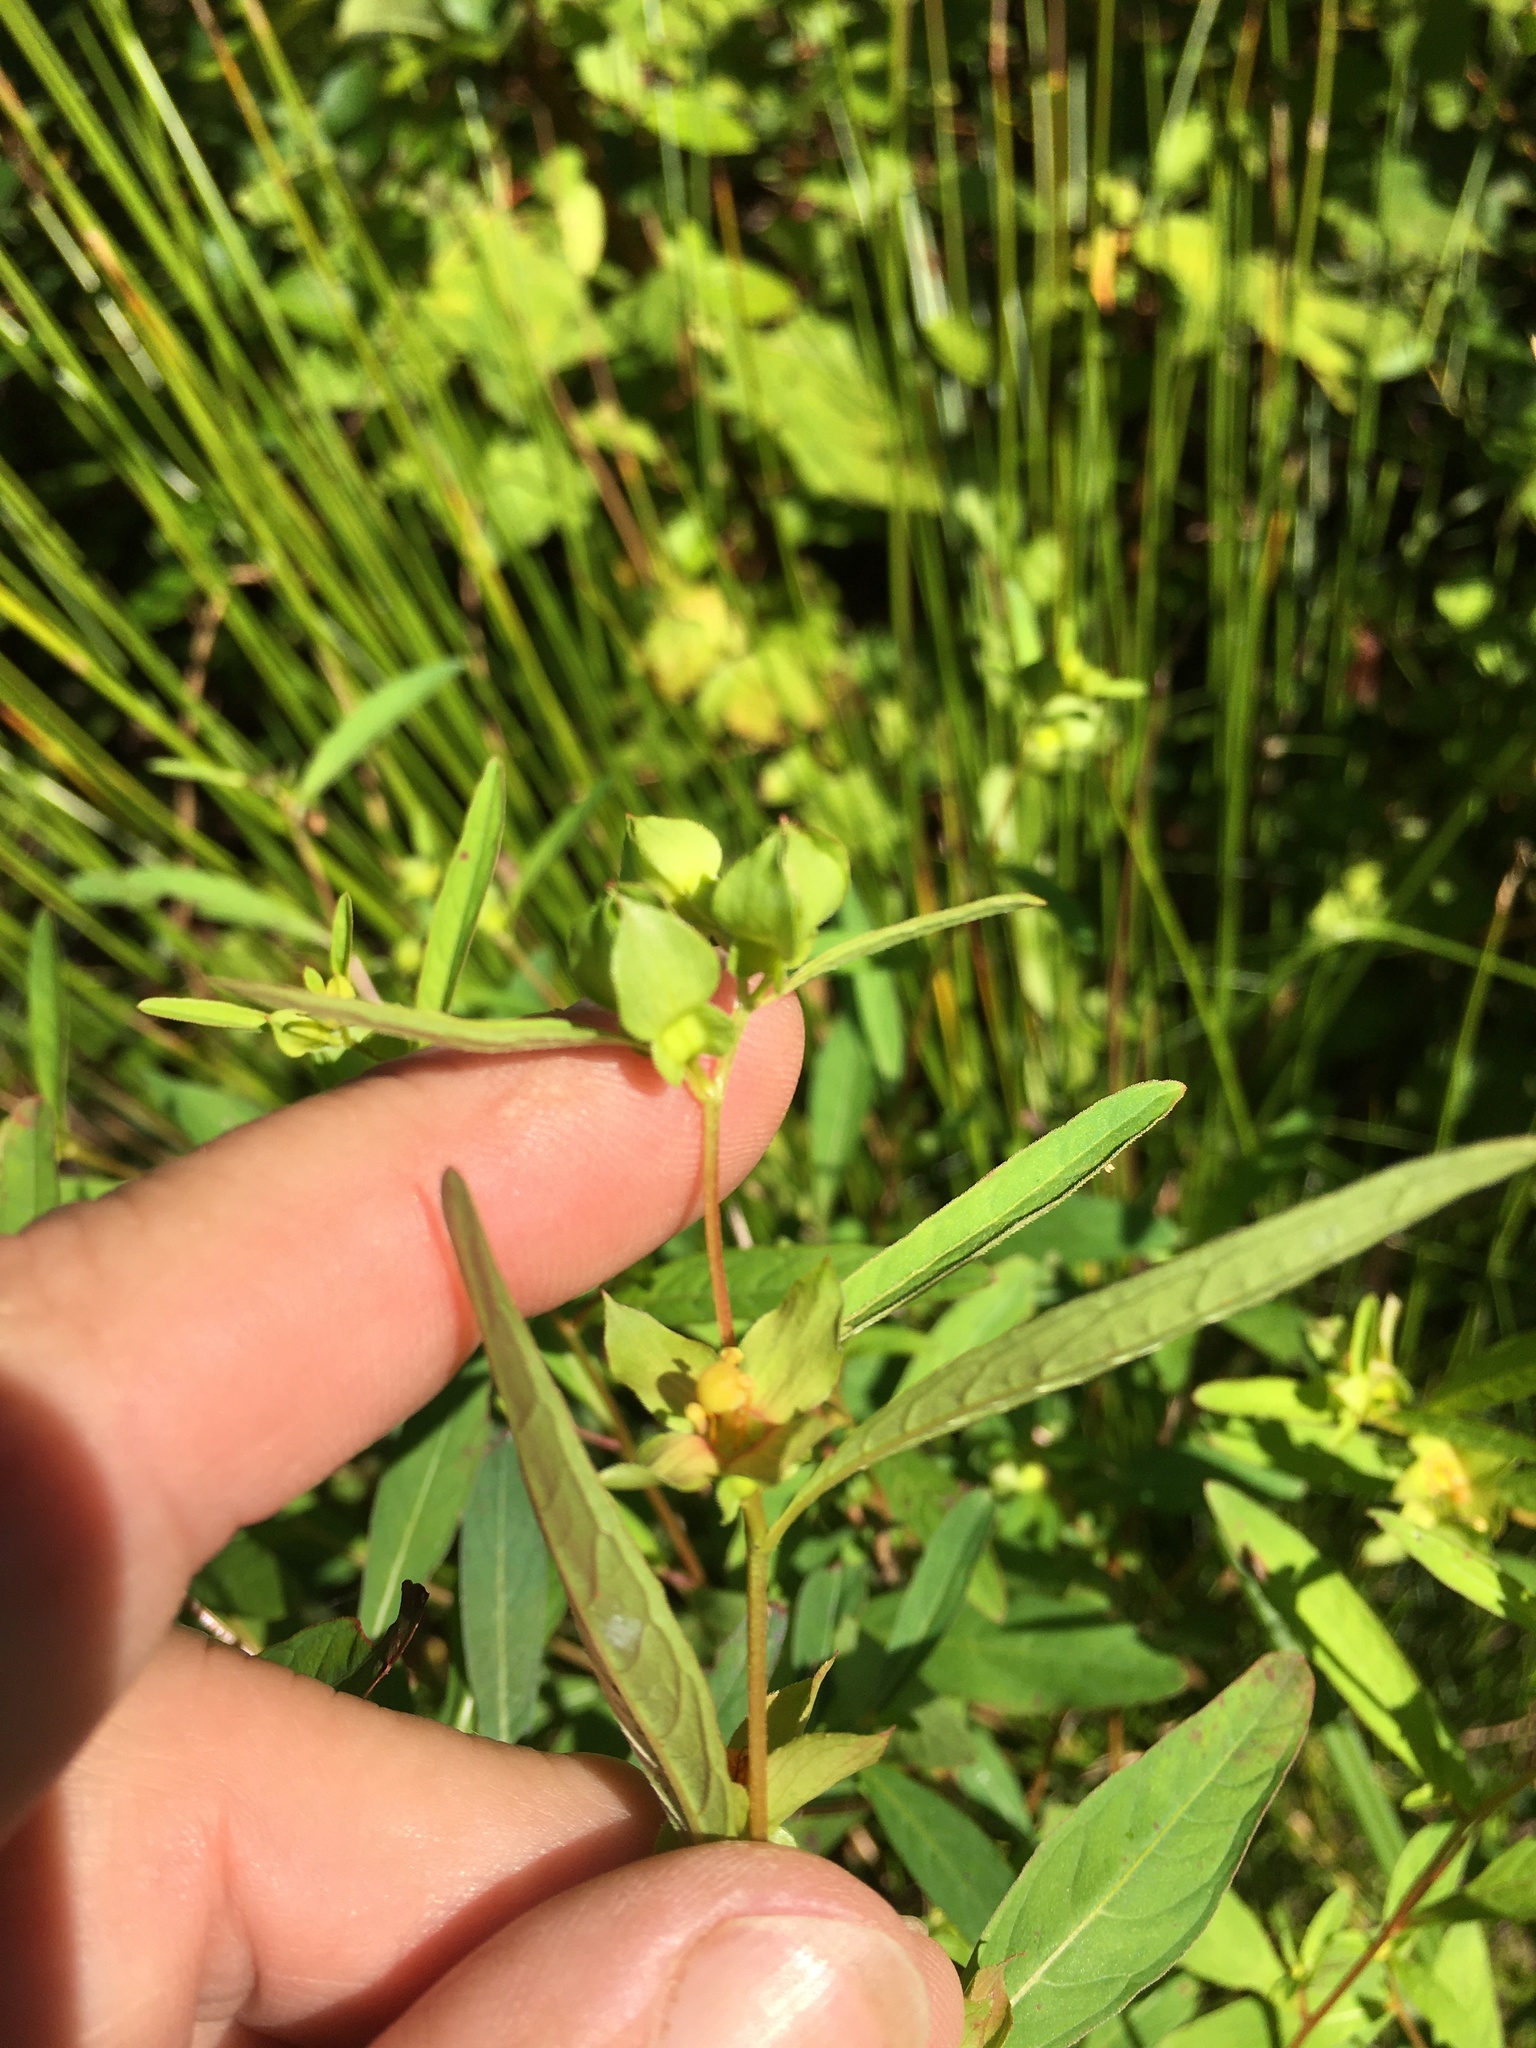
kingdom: Plantae
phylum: Tracheophyta
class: Magnoliopsida
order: Myrtales
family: Onagraceae
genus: Ludwigia
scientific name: Ludwigia alternifolia
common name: Rattlebox
